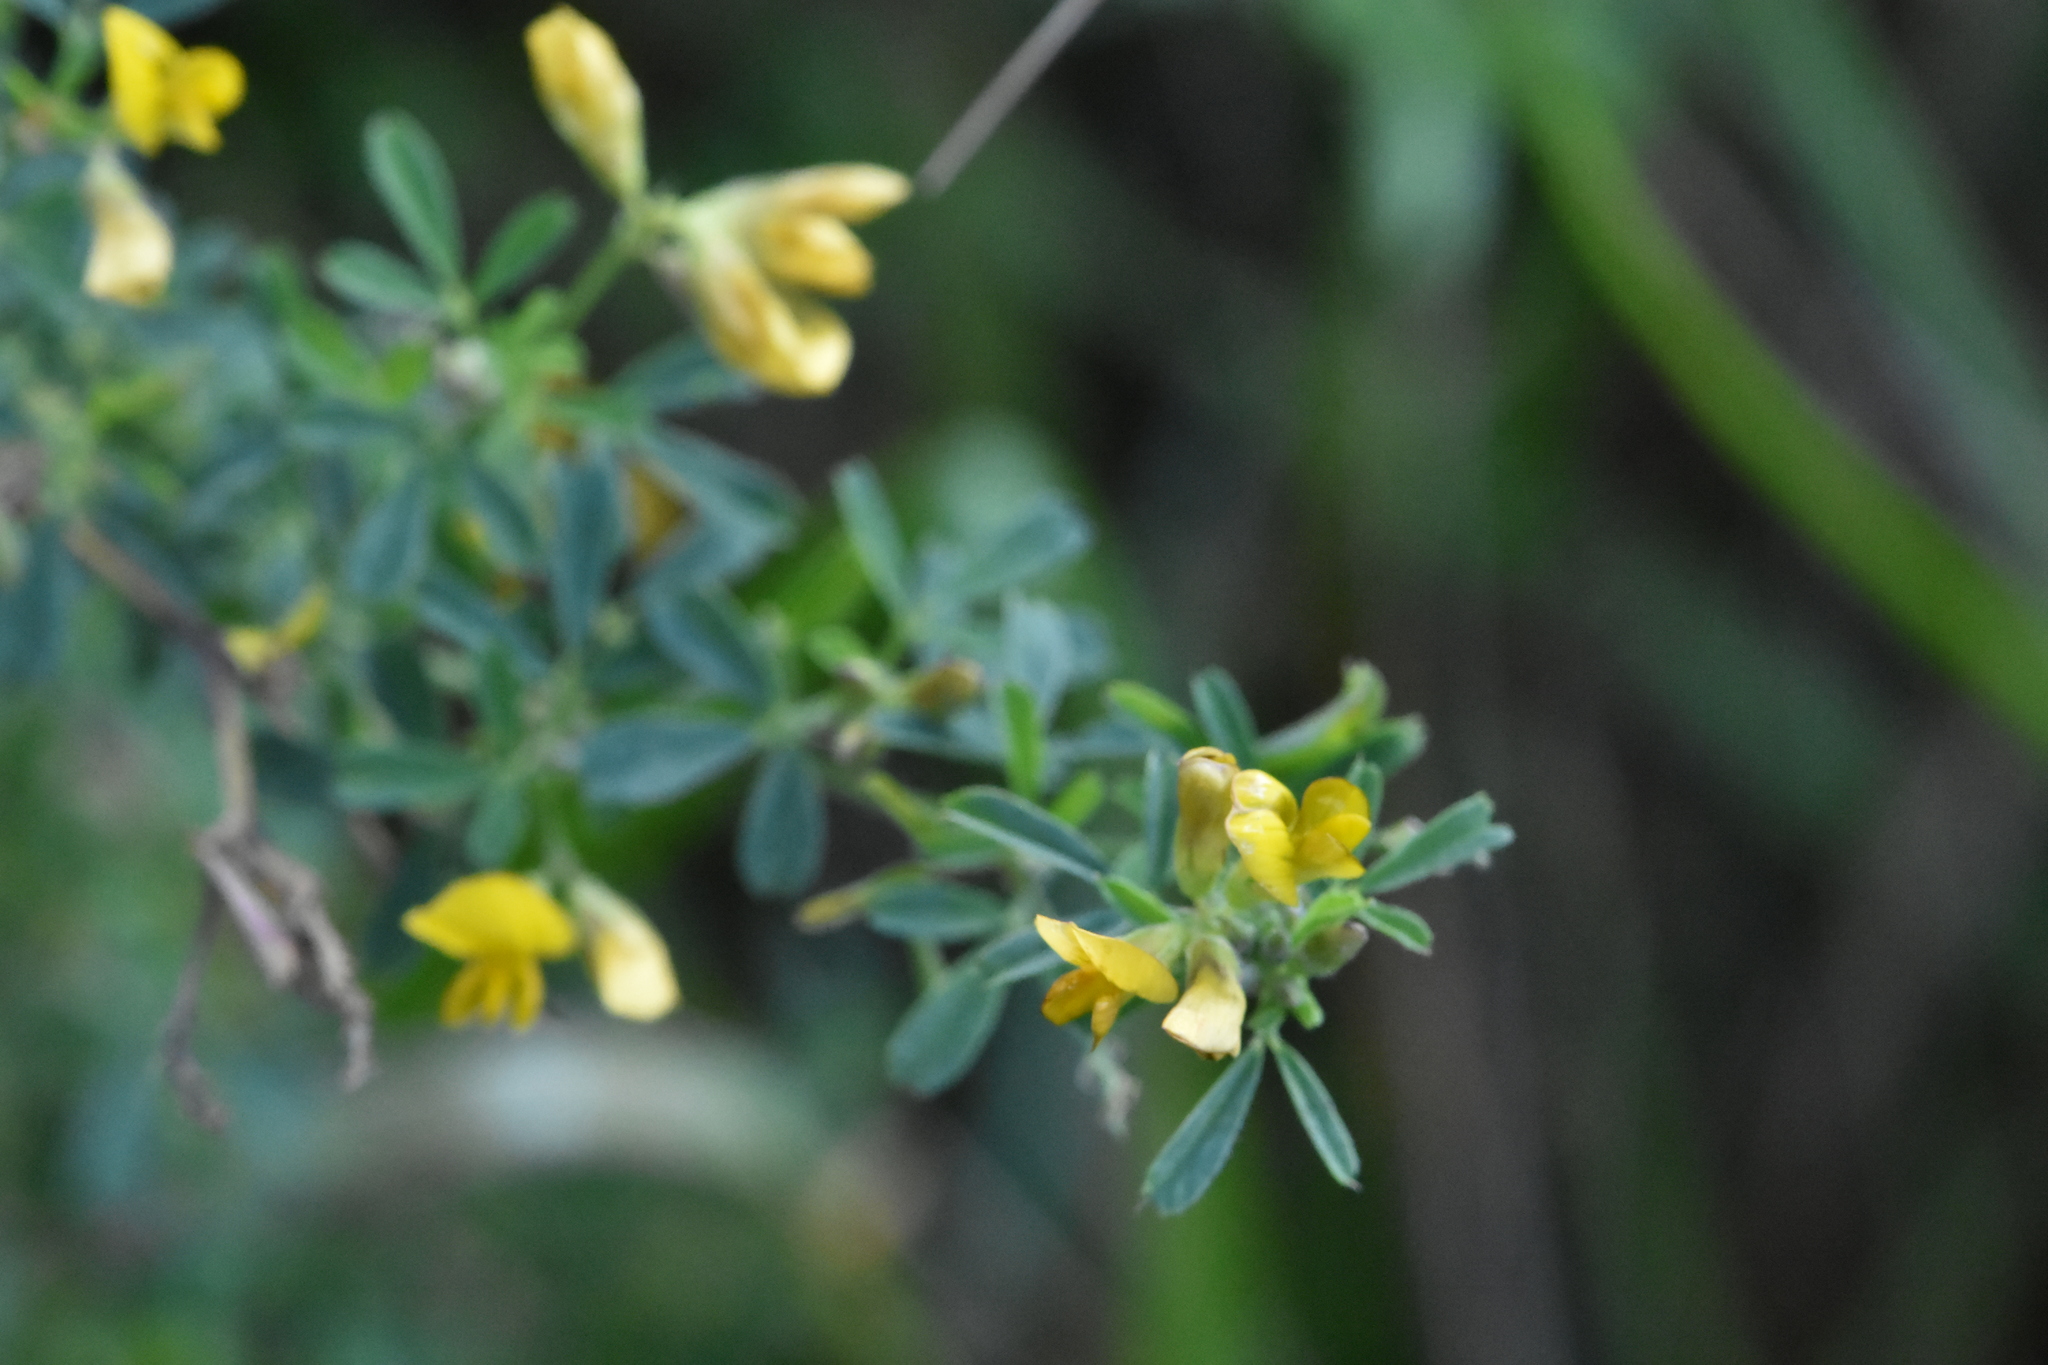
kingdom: Plantae
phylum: Tracheophyta
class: Magnoliopsida
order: Fabales
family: Fabaceae
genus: Medicago
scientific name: Medicago falcata
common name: Sickle medick
